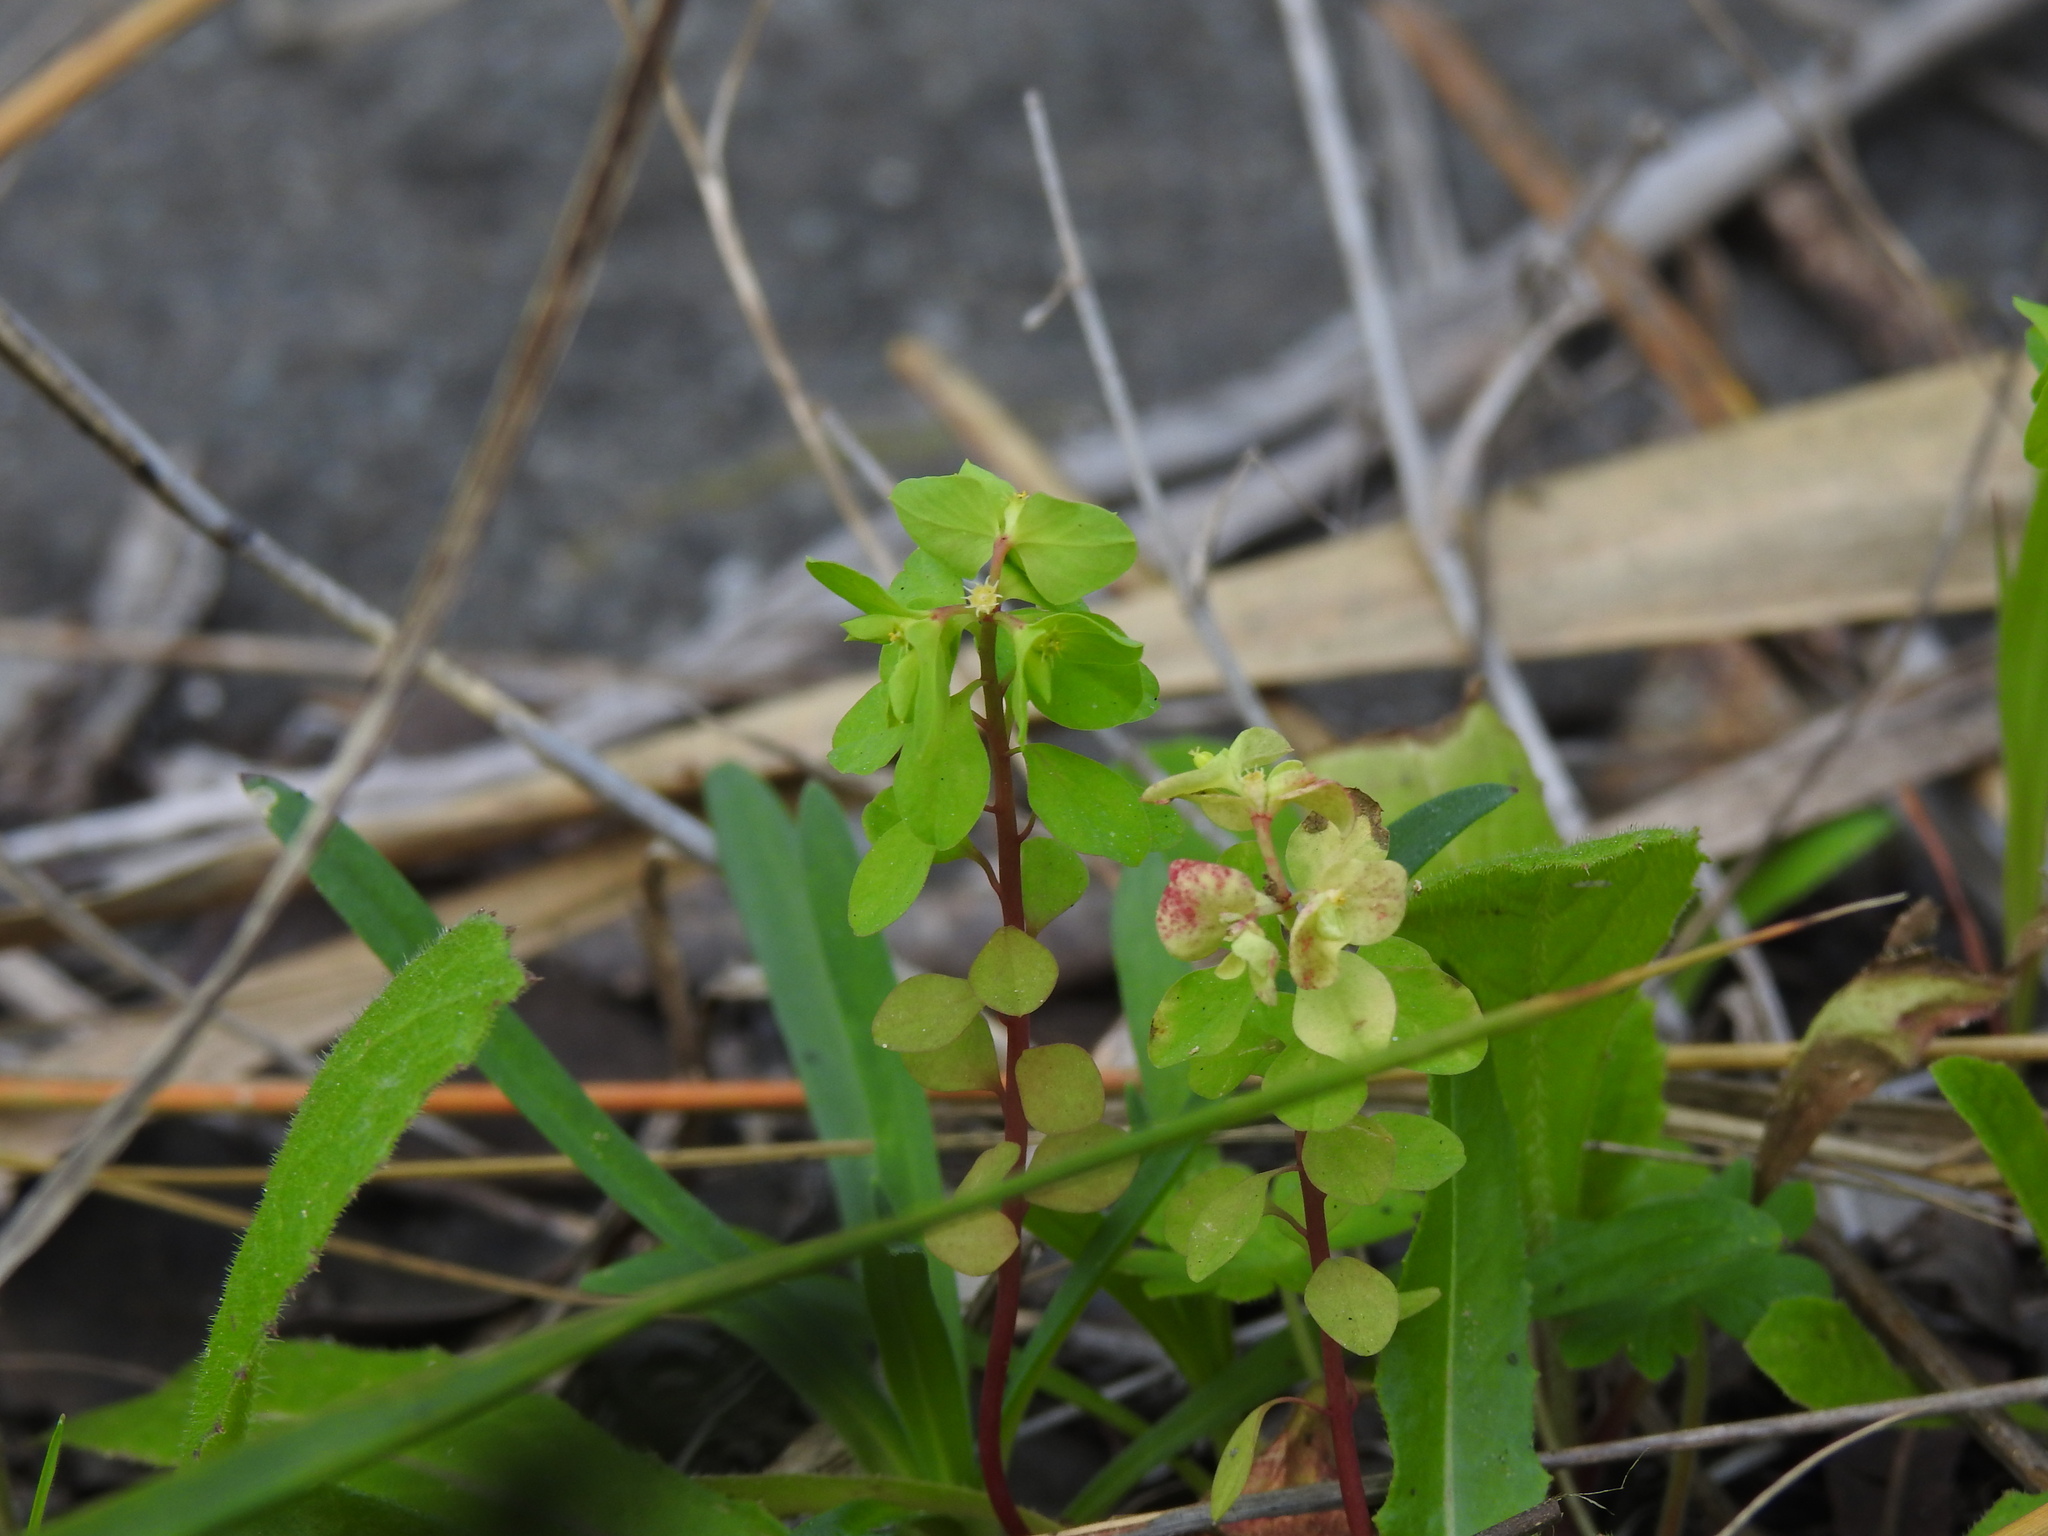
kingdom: Plantae
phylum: Tracheophyta
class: Magnoliopsida
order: Malpighiales
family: Euphorbiaceae
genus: Euphorbia
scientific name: Euphorbia peplus
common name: Petty spurge
